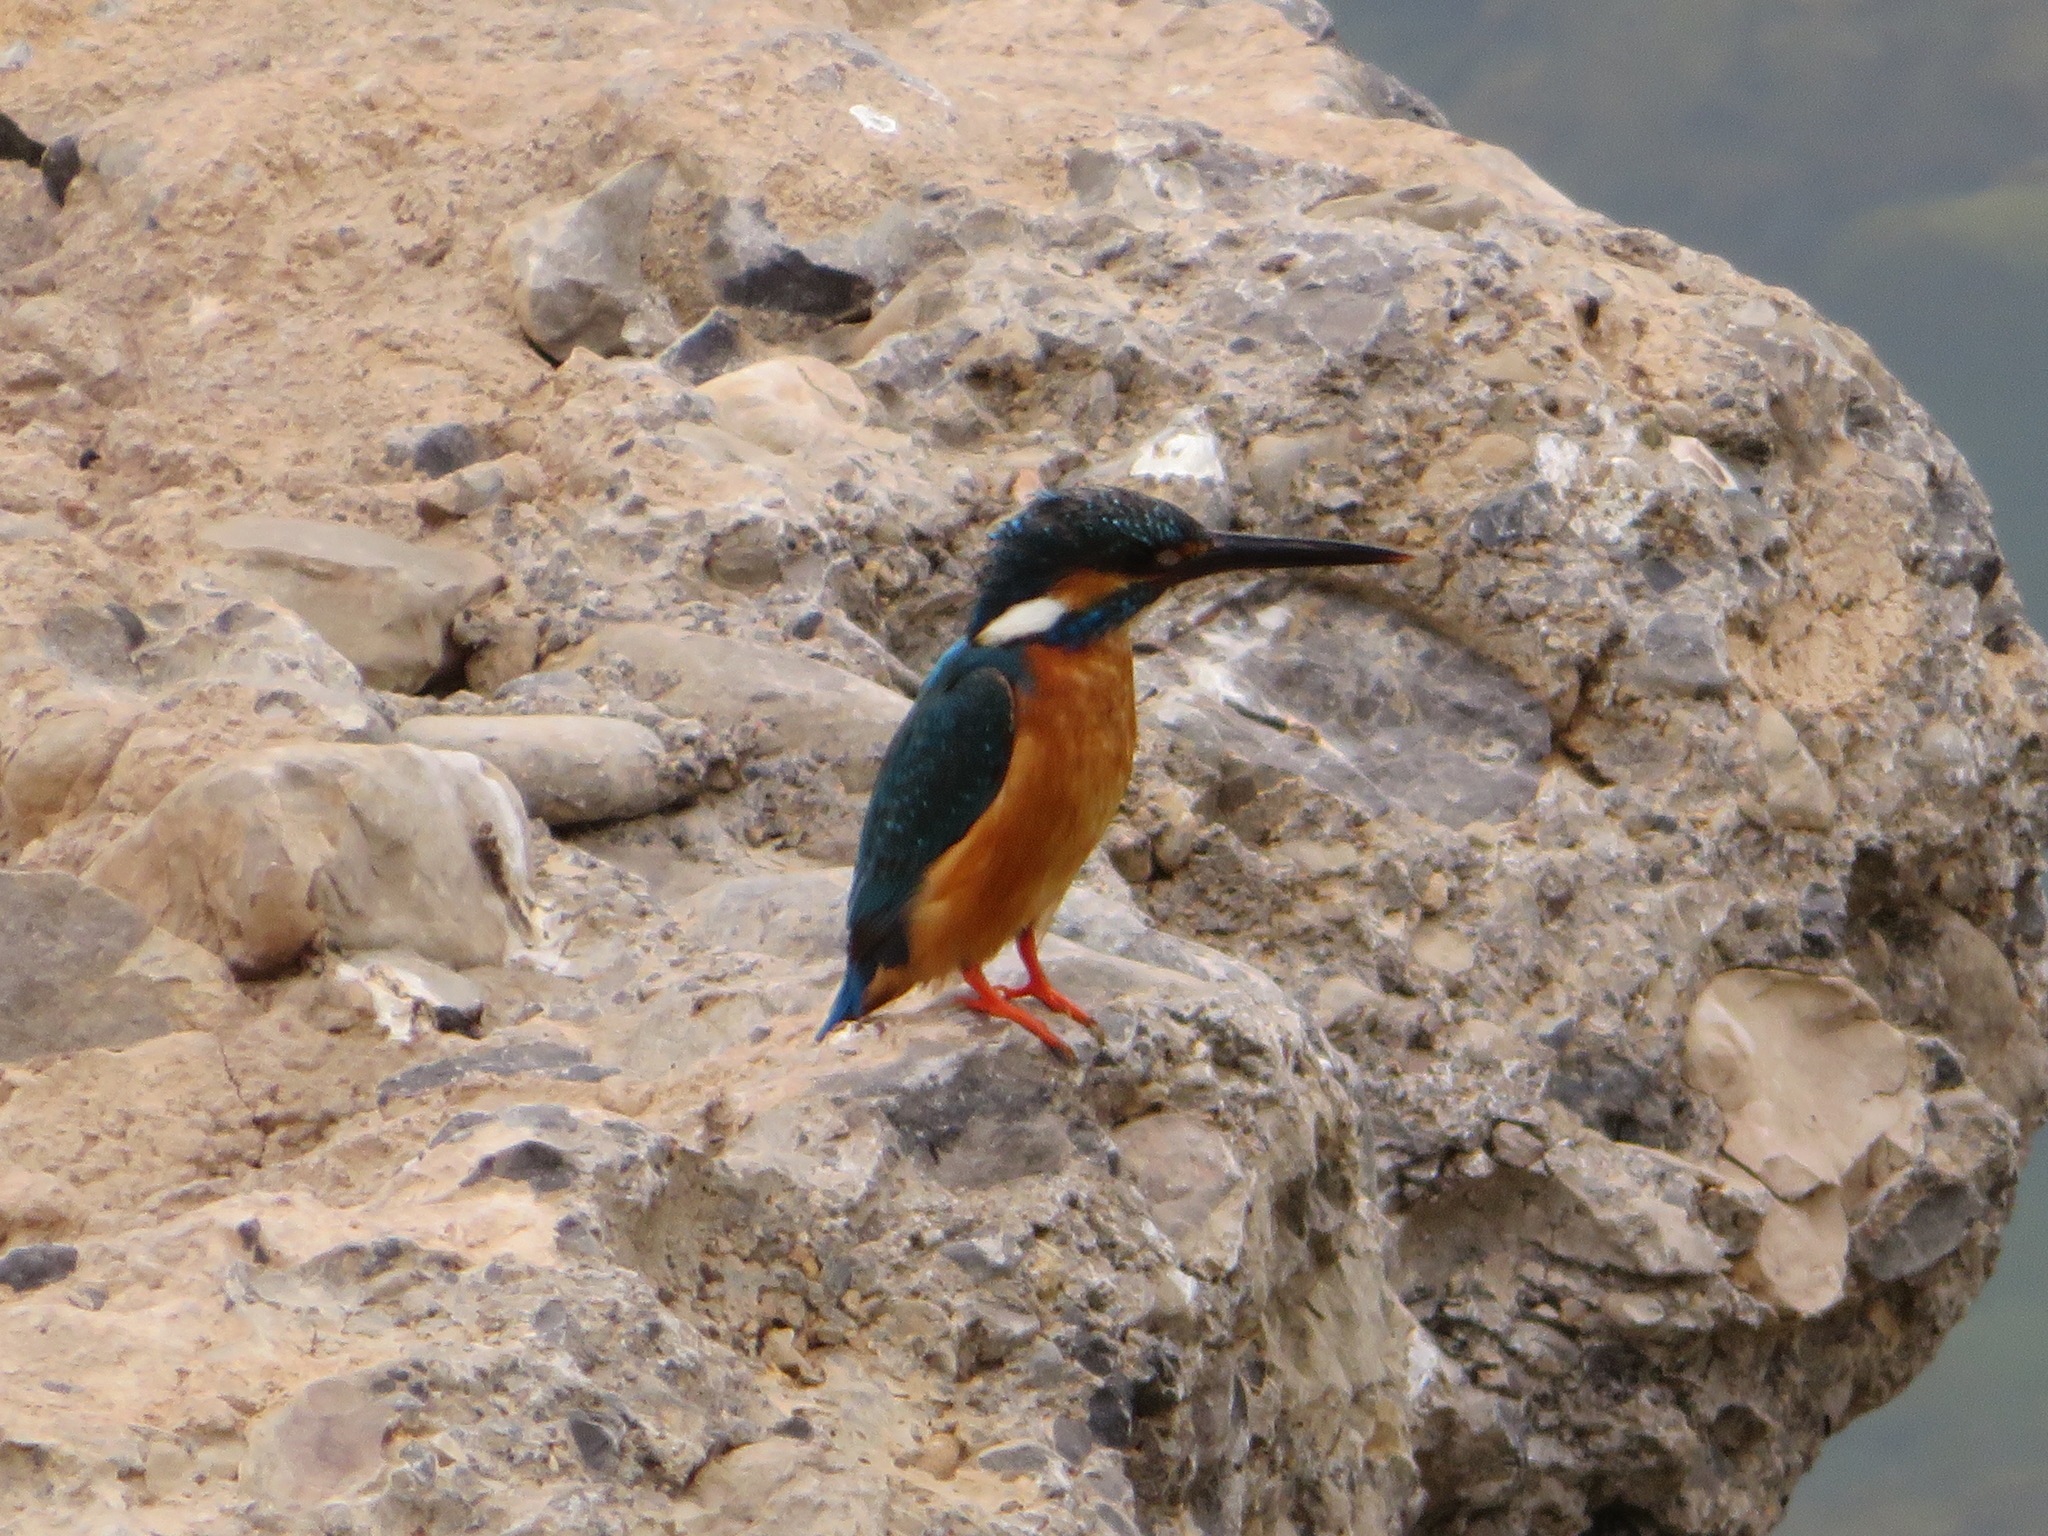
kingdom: Animalia
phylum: Chordata
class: Aves
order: Coraciiformes
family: Alcedinidae
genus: Alcedo
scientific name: Alcedo atthis
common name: Common kingfisher
